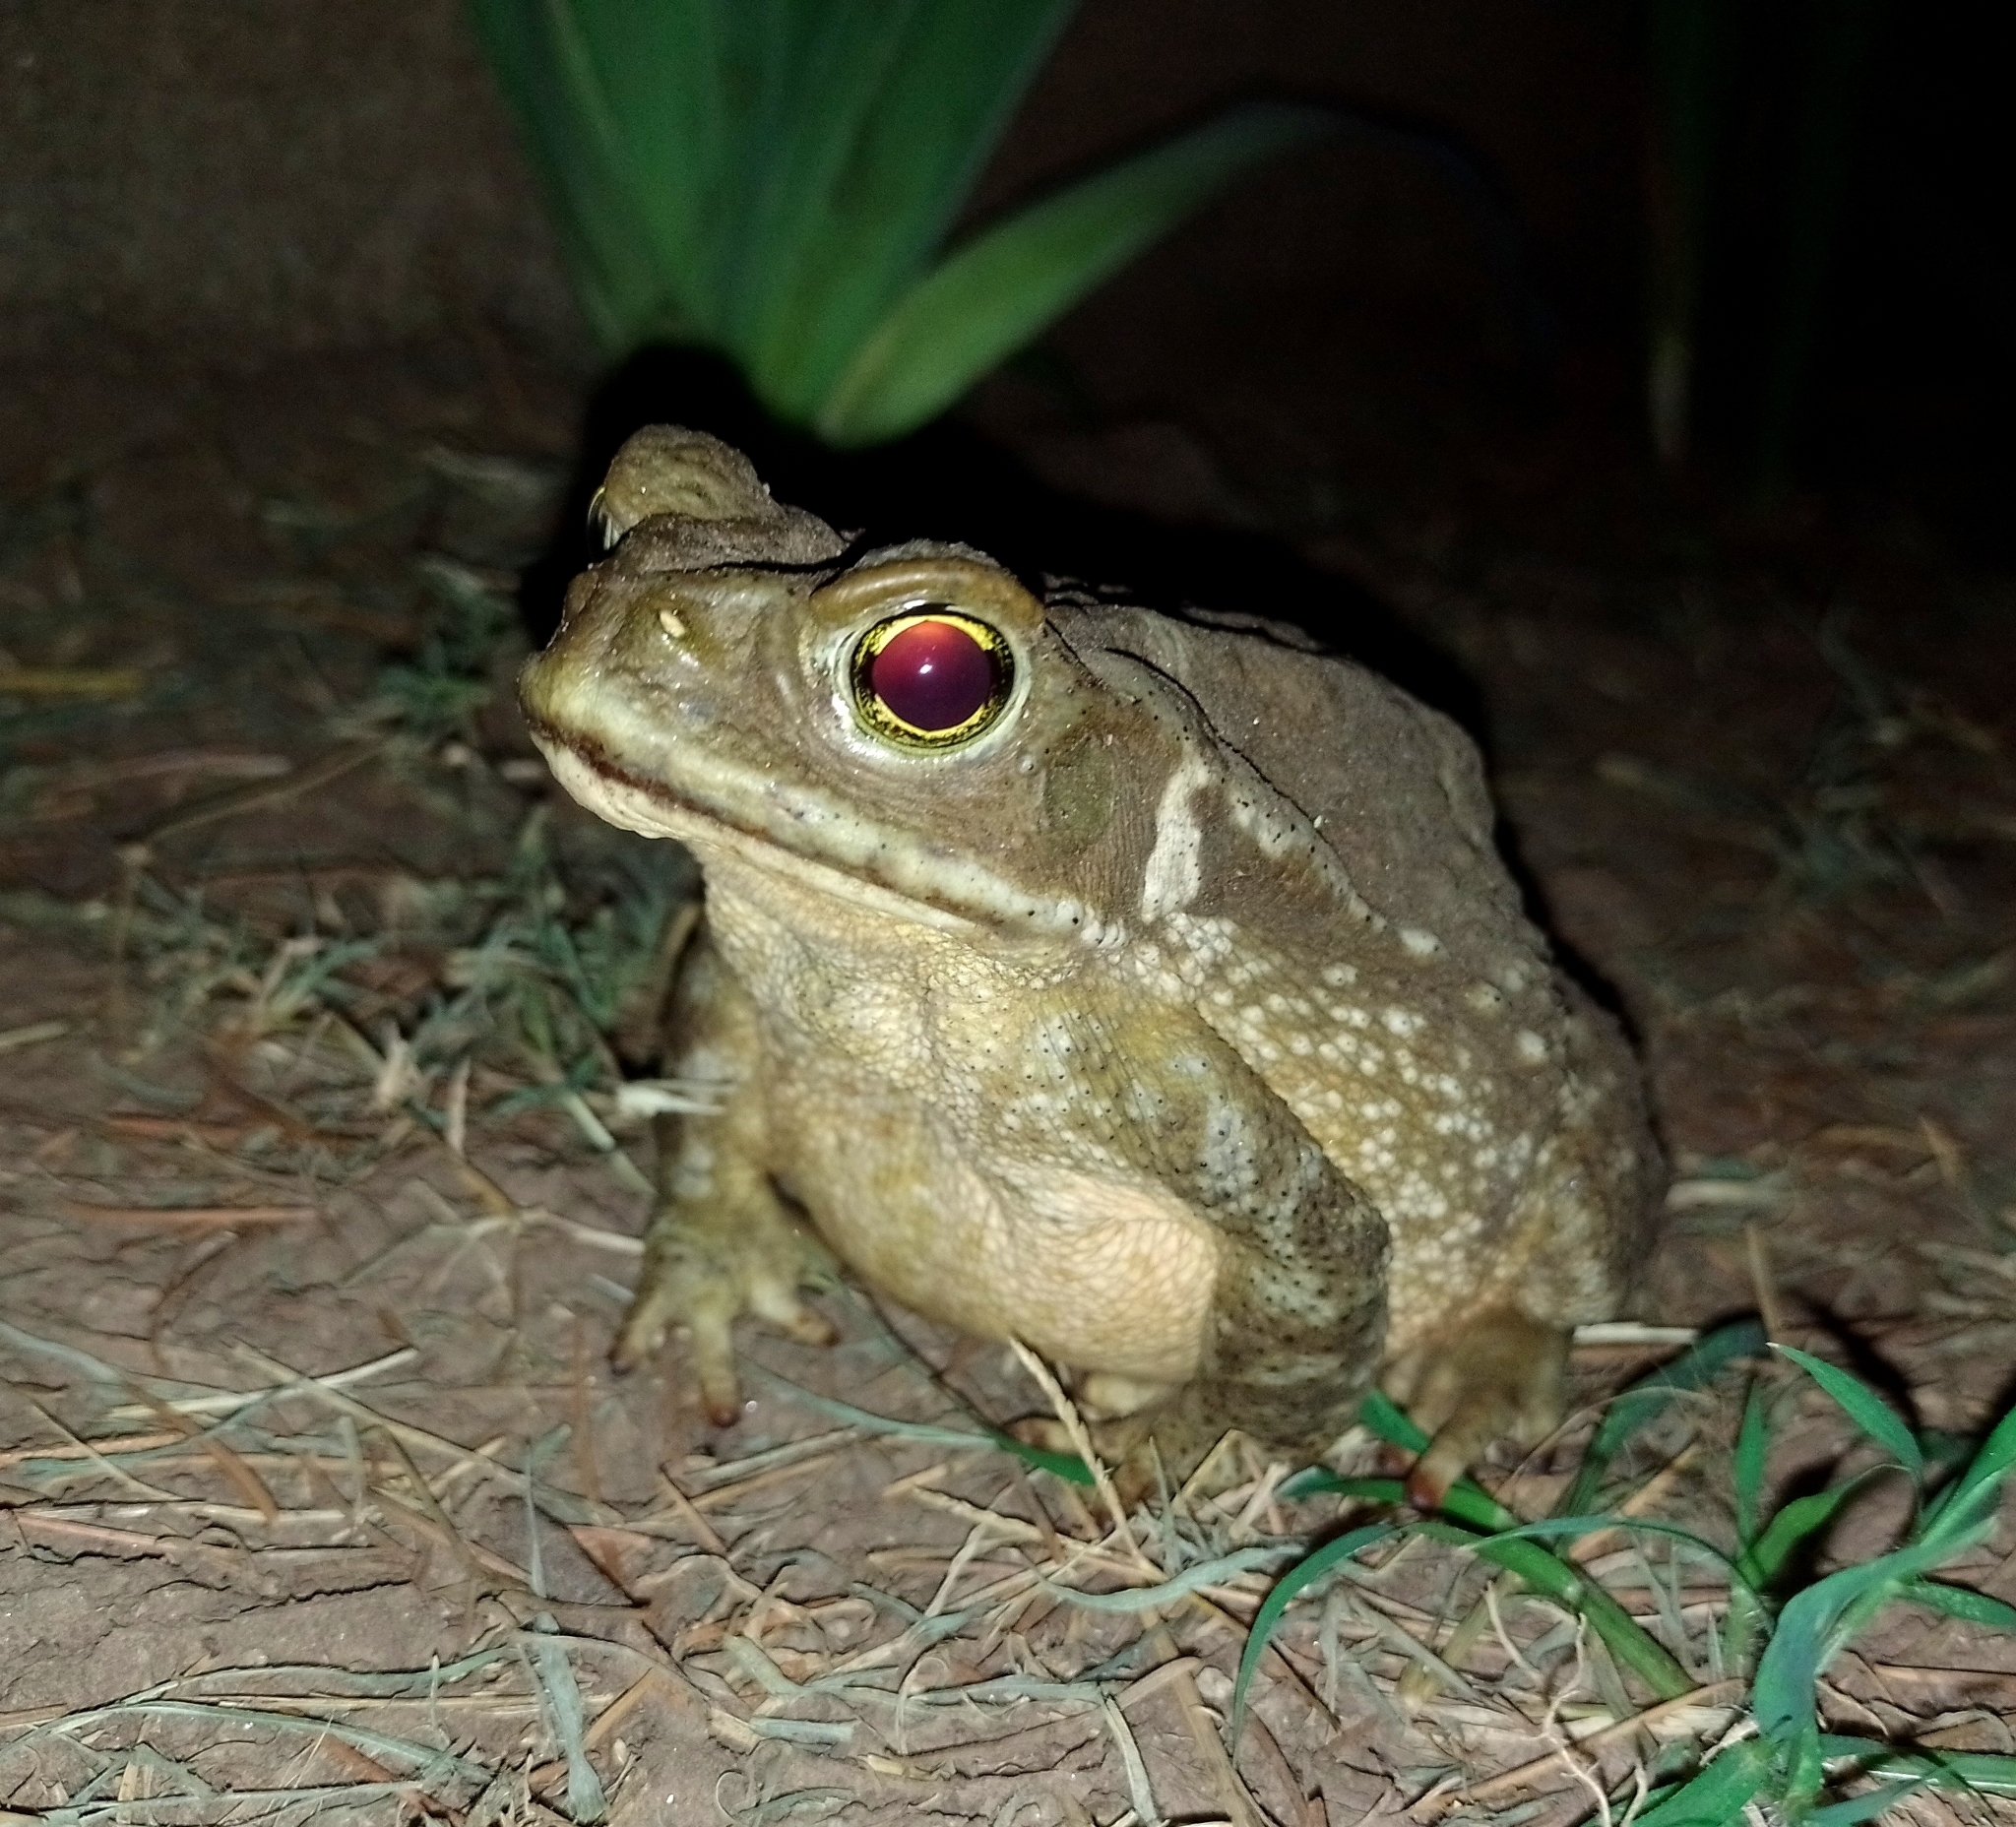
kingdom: Animalia
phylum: Chordata
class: Amphibia
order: Anura
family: Bufonidae
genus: Rhinella
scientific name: Rhinella arenarum
